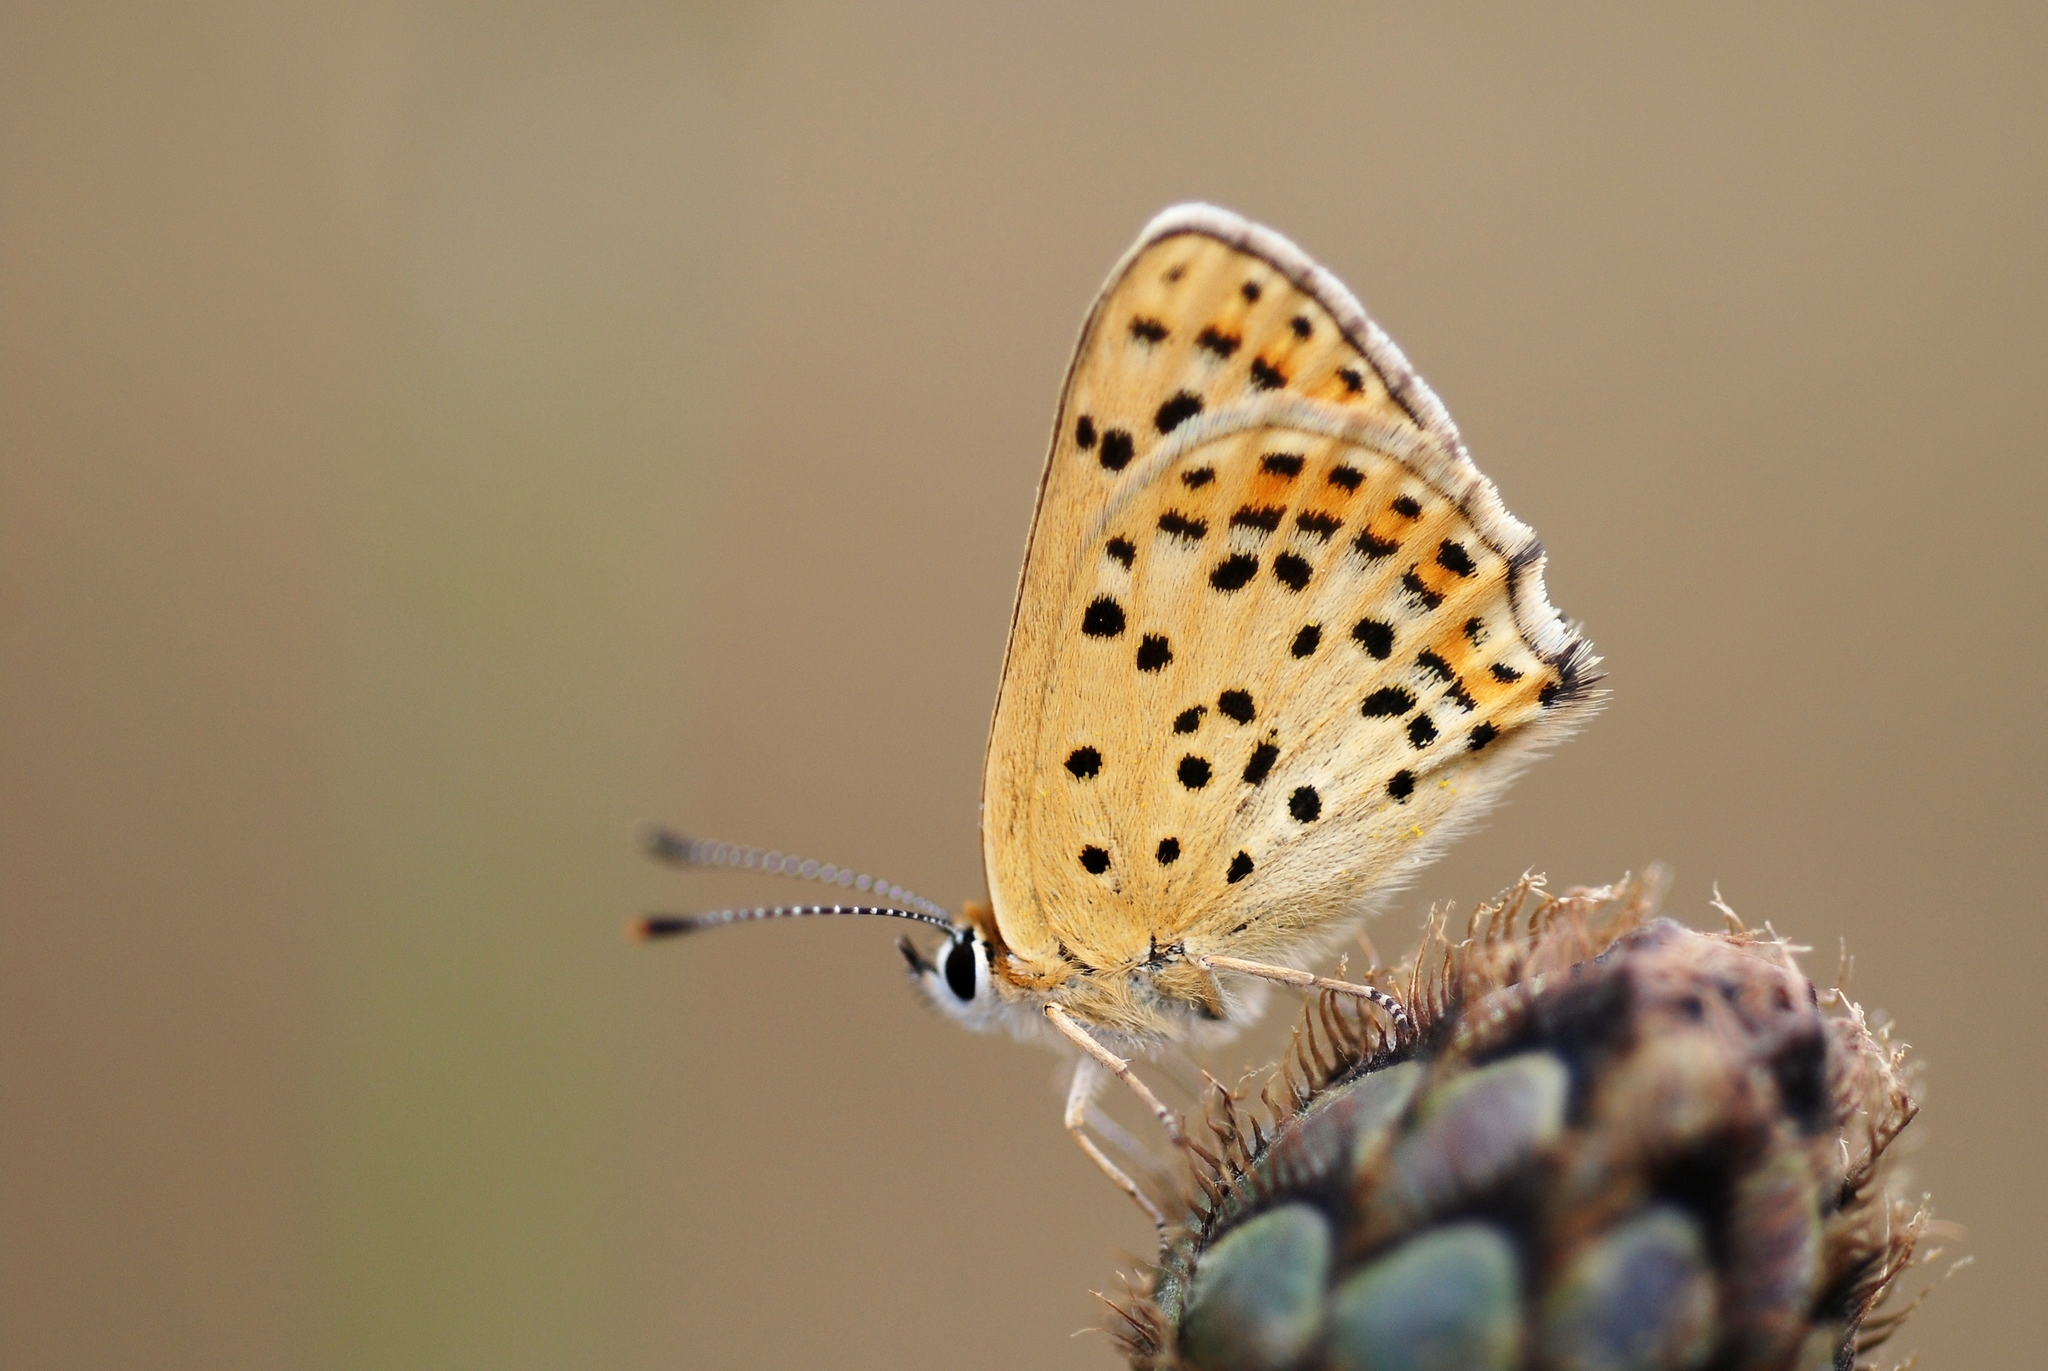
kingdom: Animalia
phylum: Arthropoda
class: Insecta
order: Lepidoptera
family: Lycaenidae
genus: Loweia
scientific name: Loweia tityrus
